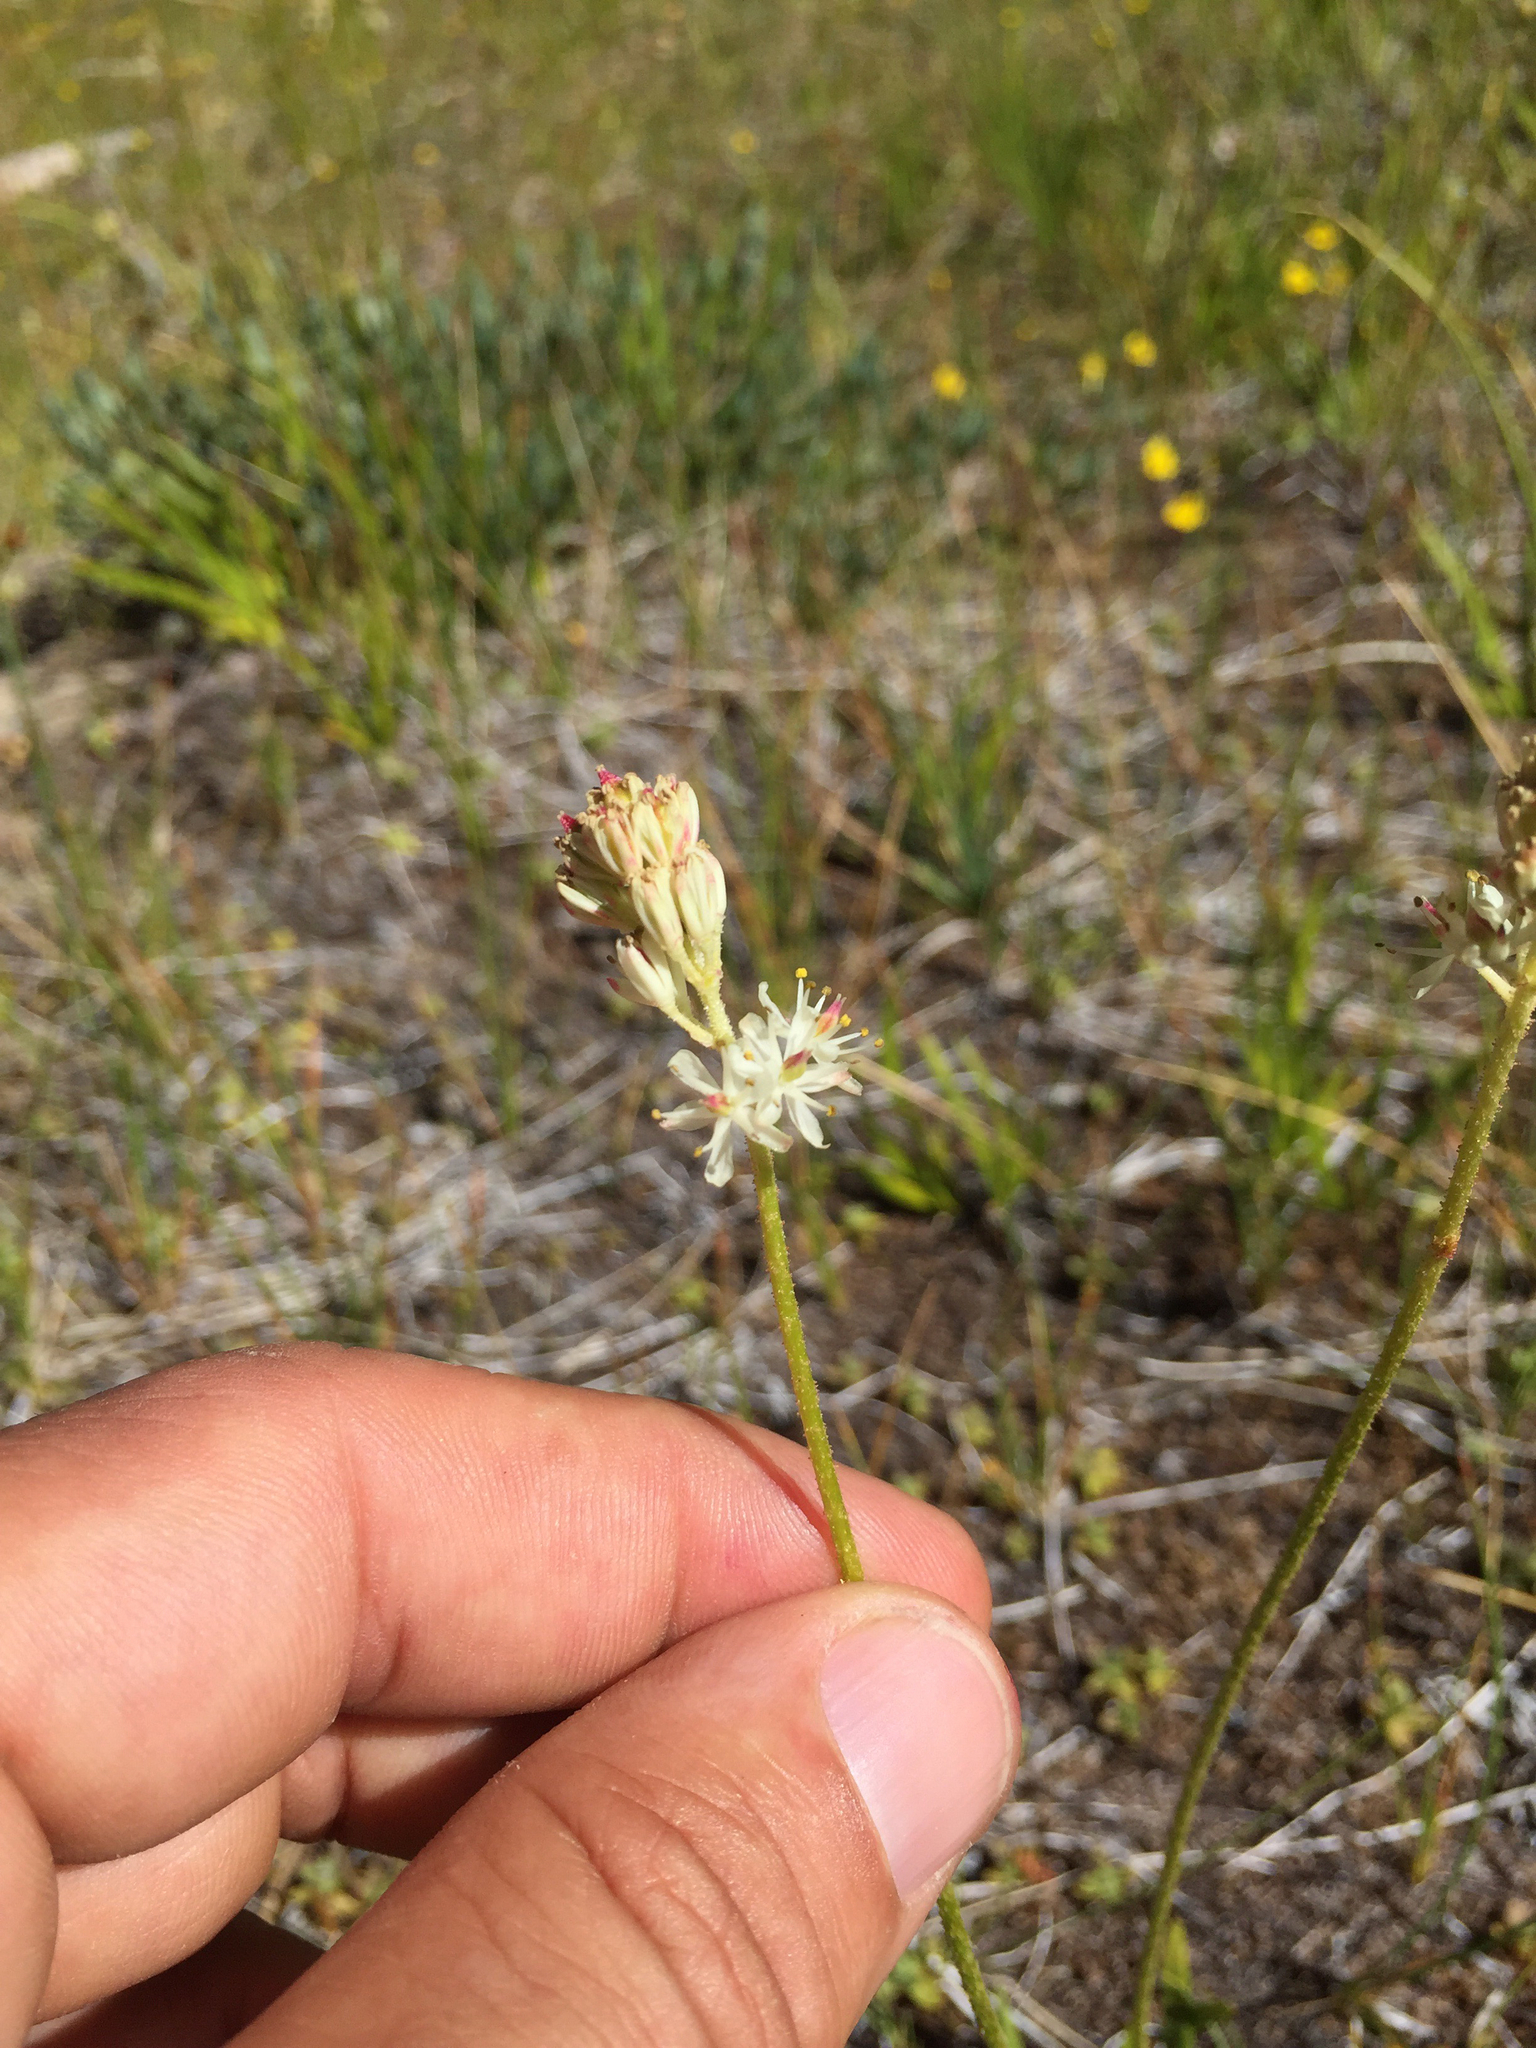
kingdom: Plantae
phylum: Tracheophyta
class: Liliopsida
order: Alismatales
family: Tofieldiaceae
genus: Triantha
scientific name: Triantha occidentalis
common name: Western false asphodel
